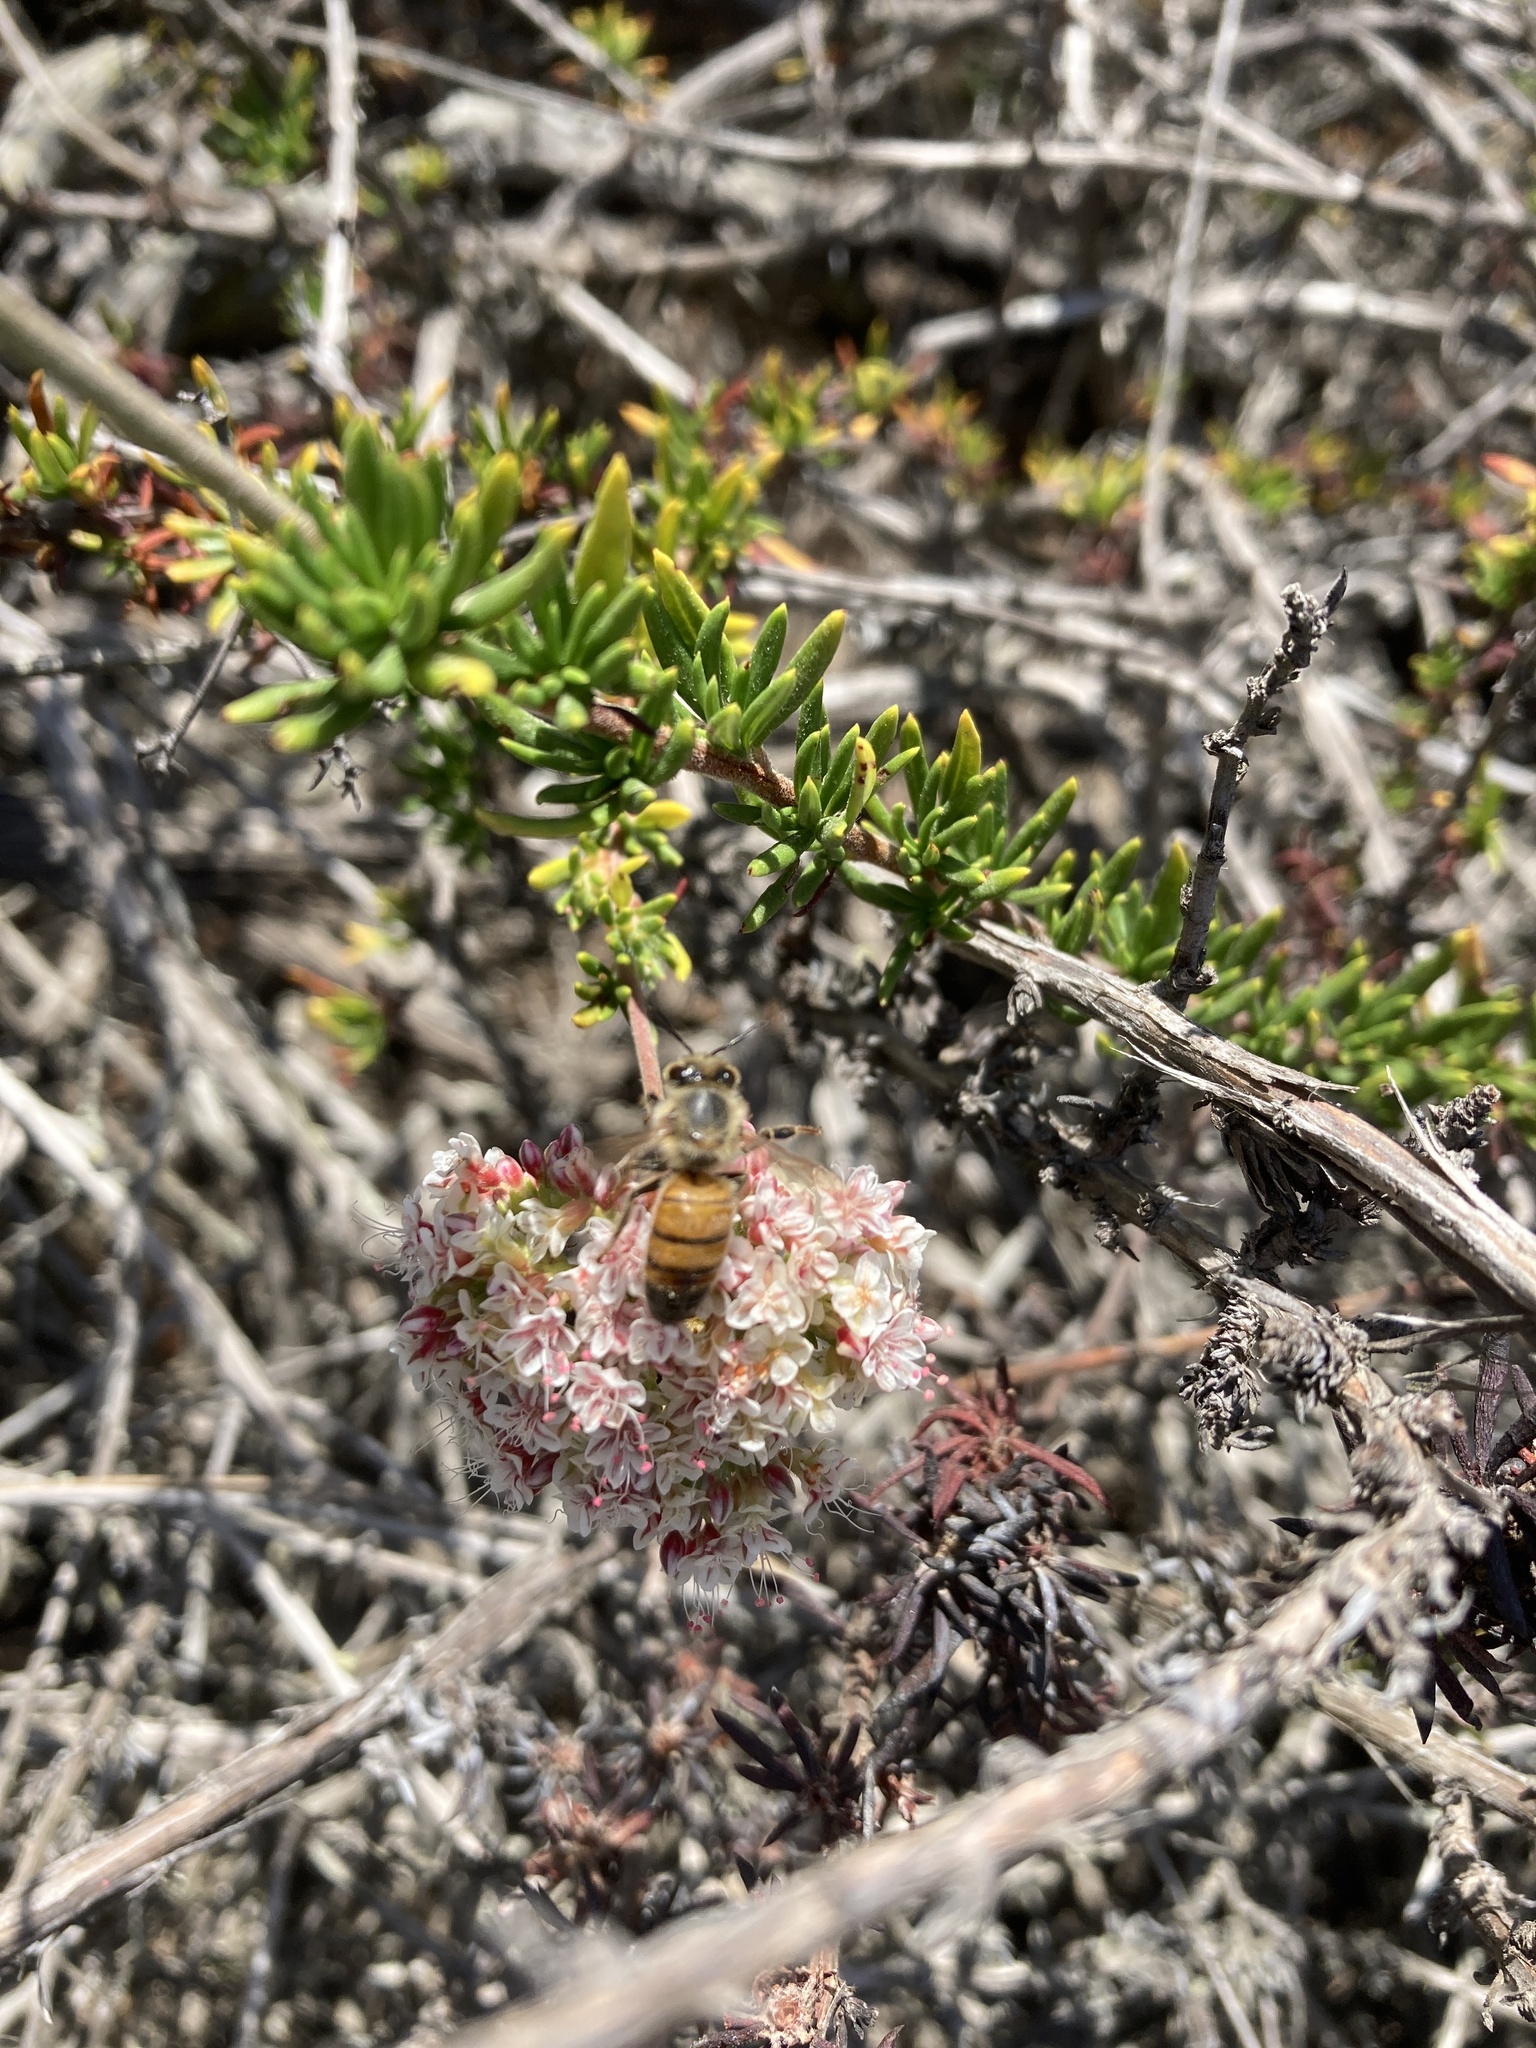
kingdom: Animalia
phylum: Arthropoda
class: Insecta
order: Hymenoptera
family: Apidae
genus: Apis
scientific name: Apis mellifera
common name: Honey bee
